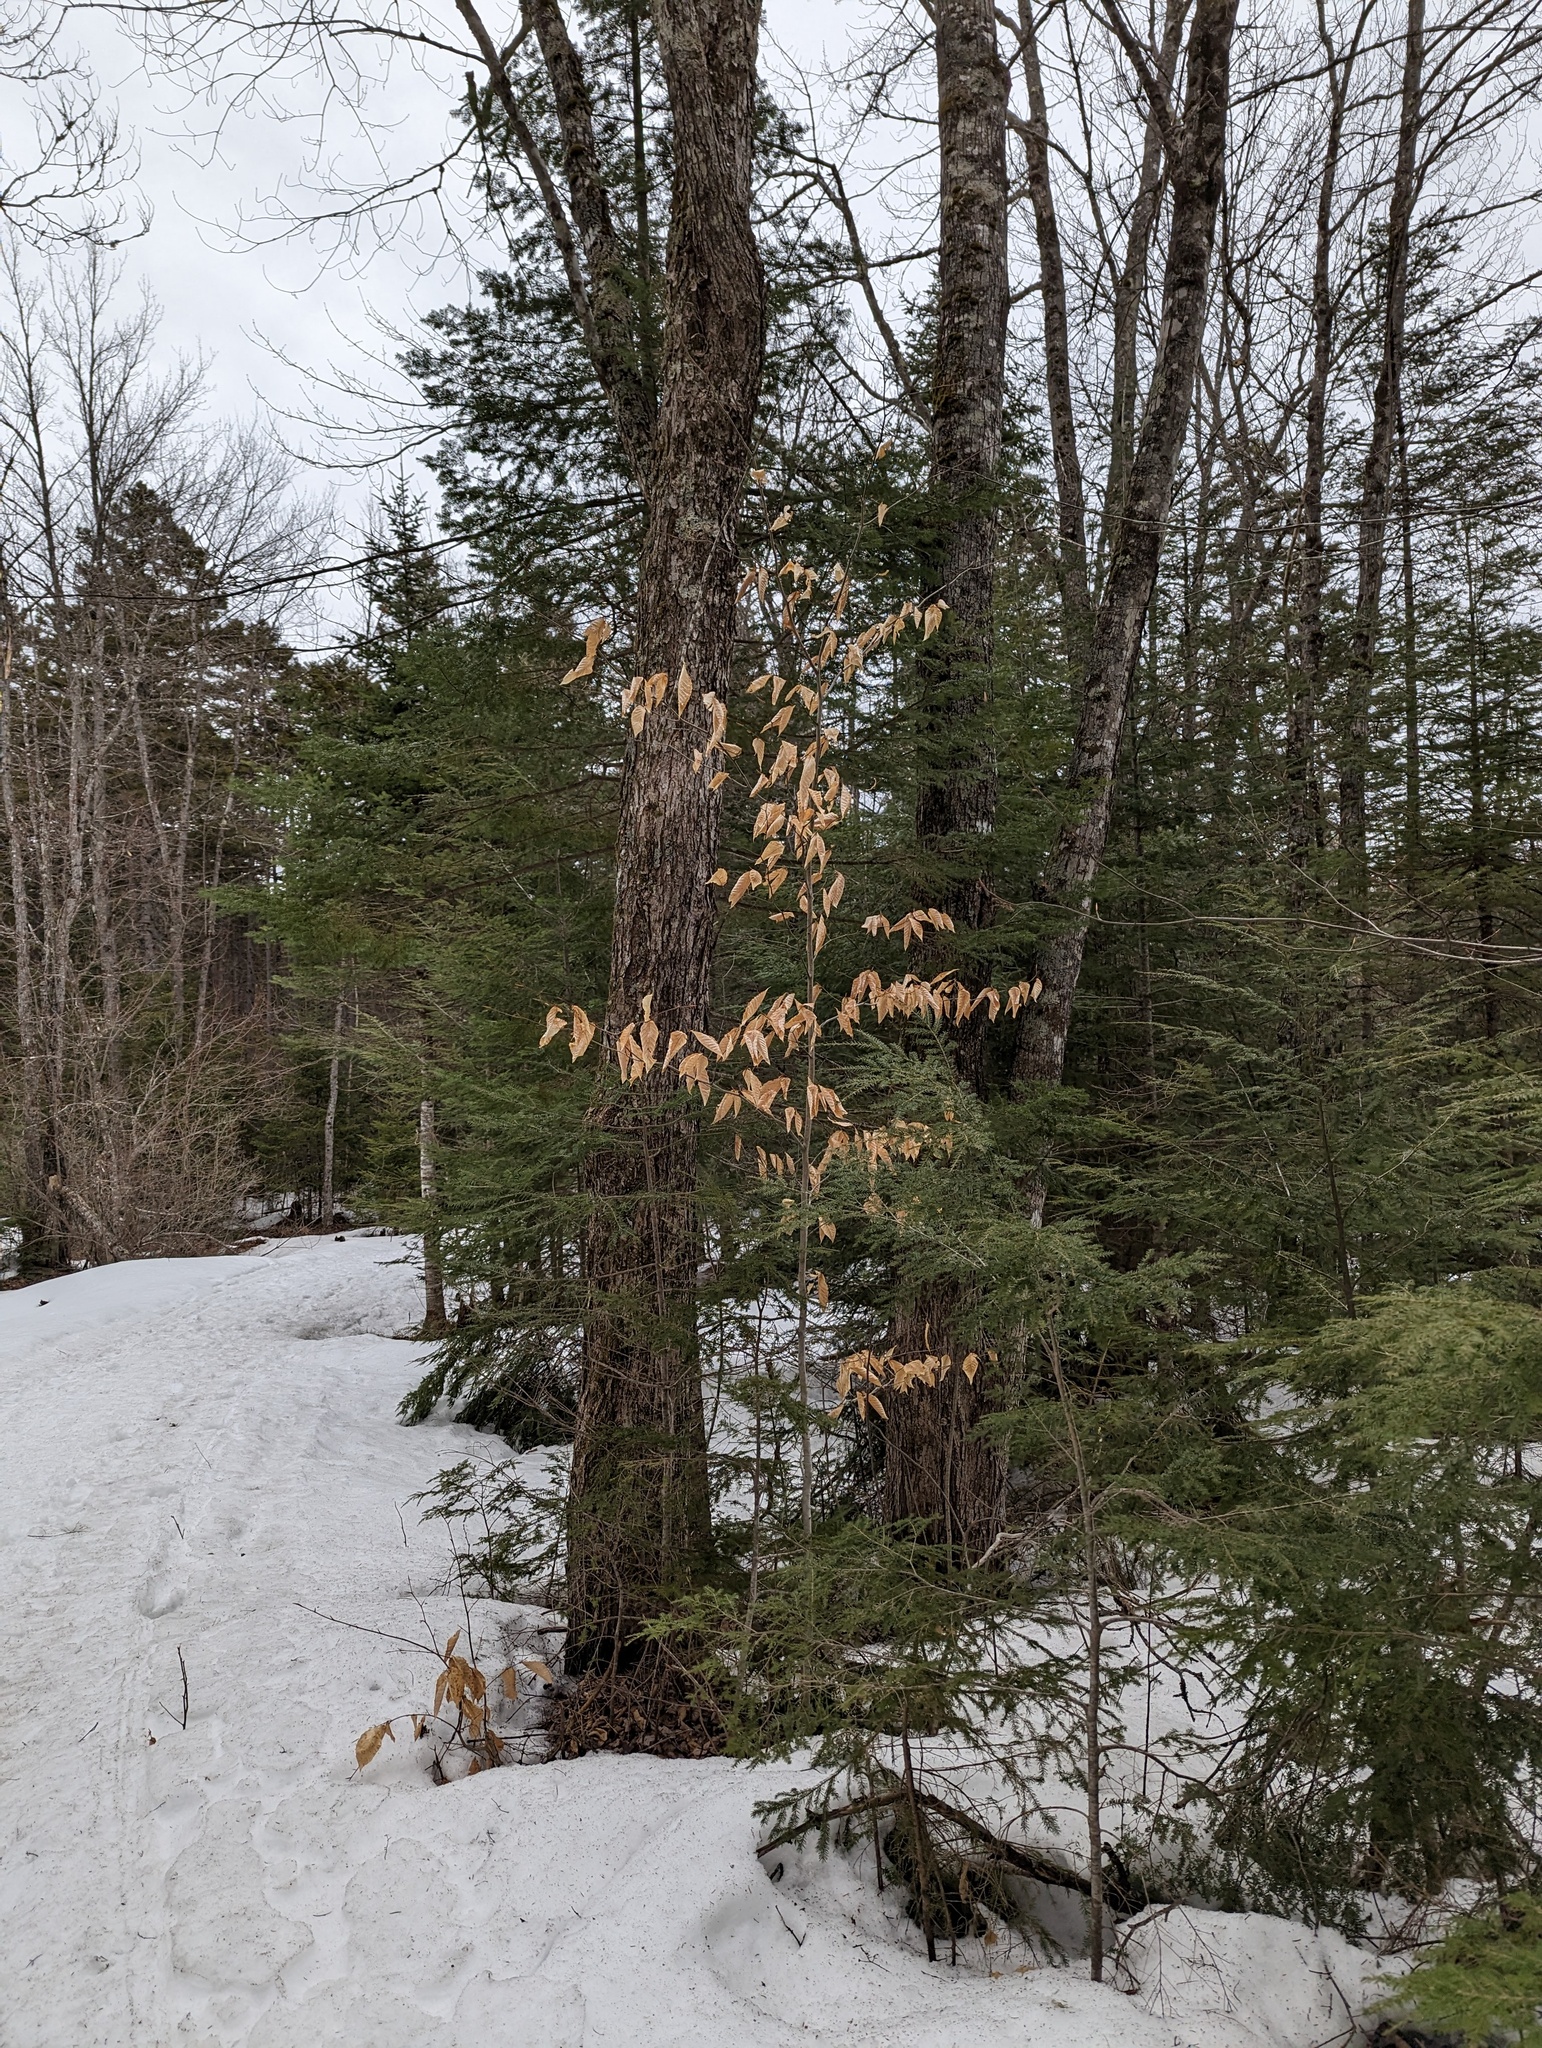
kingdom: Plantae
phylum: Tracheophyta
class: Magnoliopsida
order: Fagales
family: Fagaceae
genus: Fagus
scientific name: Fagus grandifolia
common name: American beech
